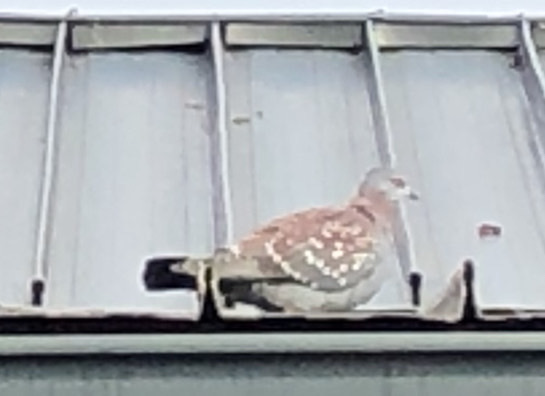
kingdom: Animalia
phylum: Chordata
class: Aves
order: Columbiformes
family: Columbidae
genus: Columba
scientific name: Columba guinea
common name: Speckled pigeon
